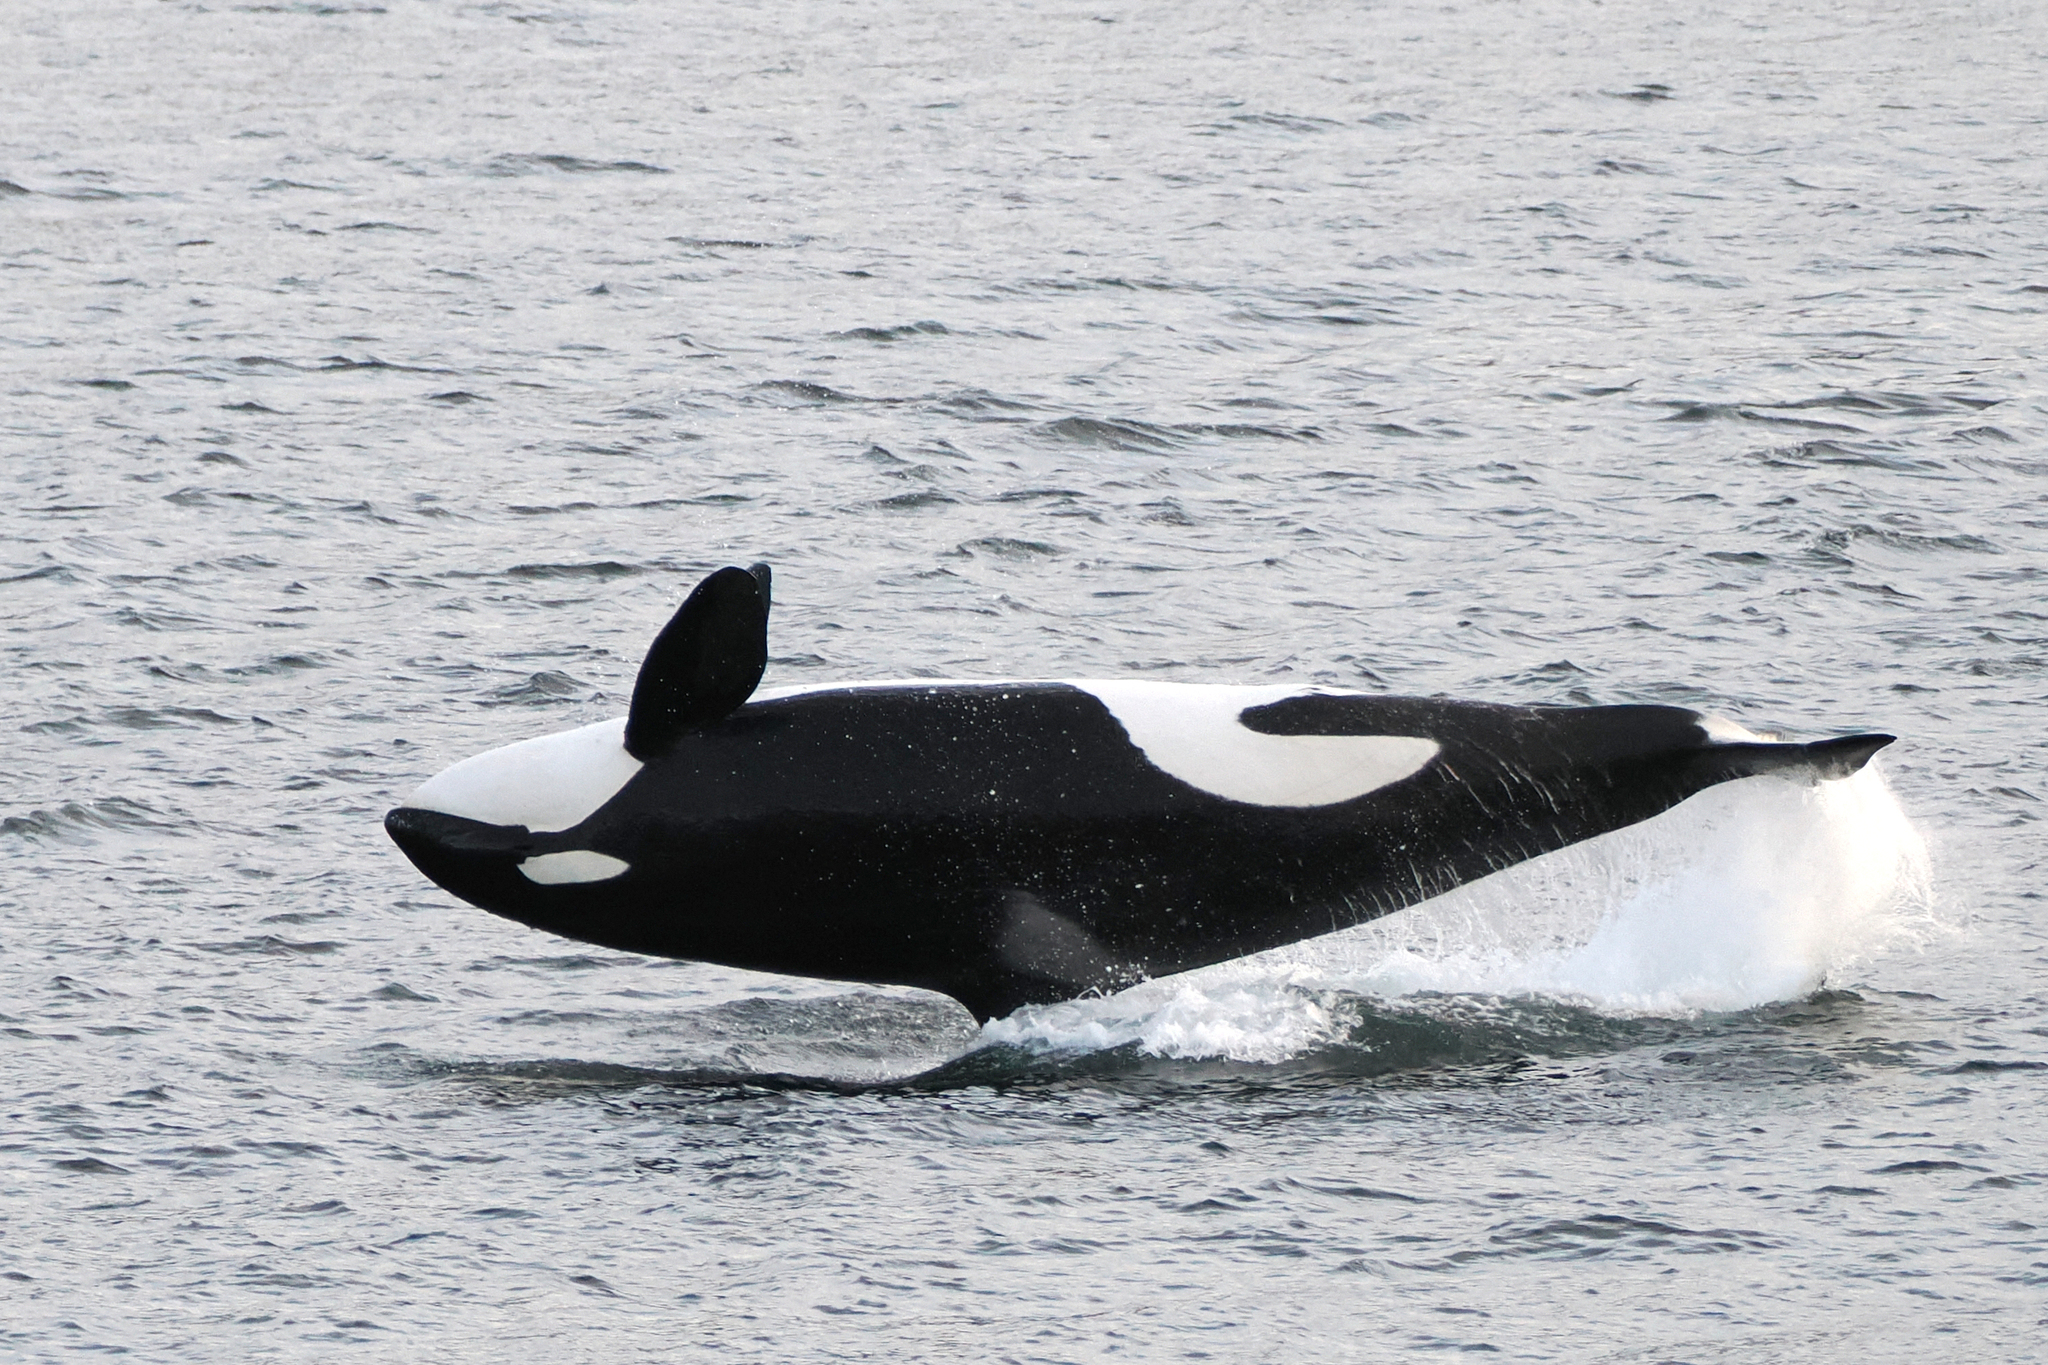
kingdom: Animalia
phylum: Chordata
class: Mammalia
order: Cetacea
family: Delphinidae
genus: Orcinus
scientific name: Orcinus orca
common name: Killer whale
